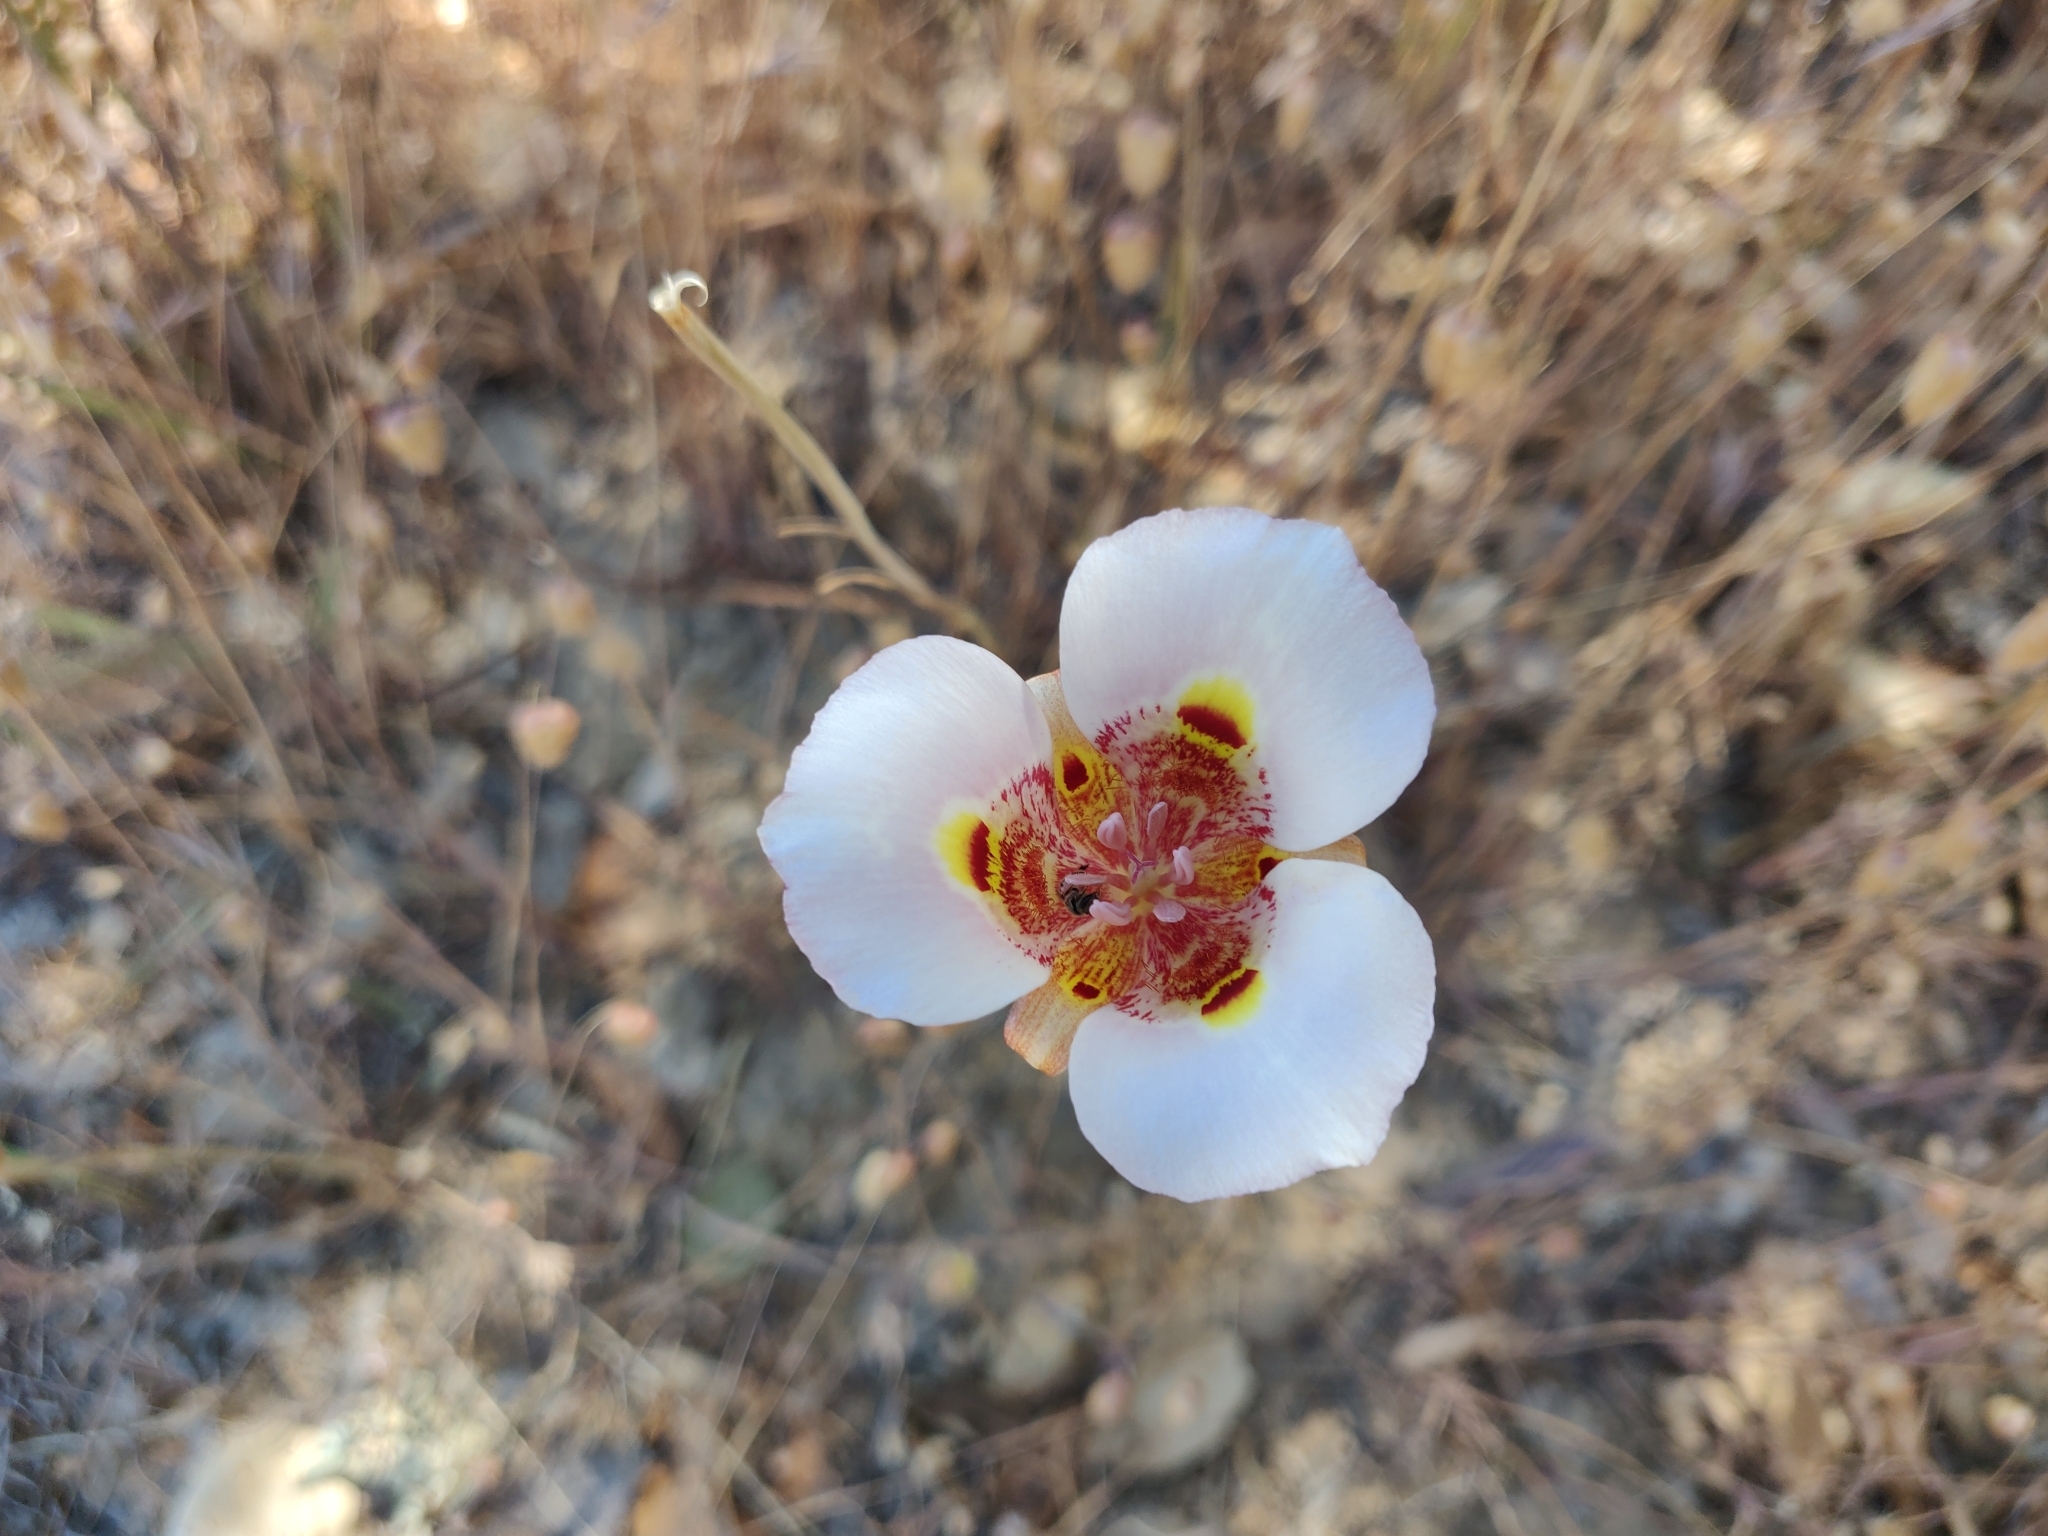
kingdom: Plantae
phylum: Tracheophyta
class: Liliopsida
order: Liliales
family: Liliaceae
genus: Calochortus
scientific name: Calochortus argillosus
